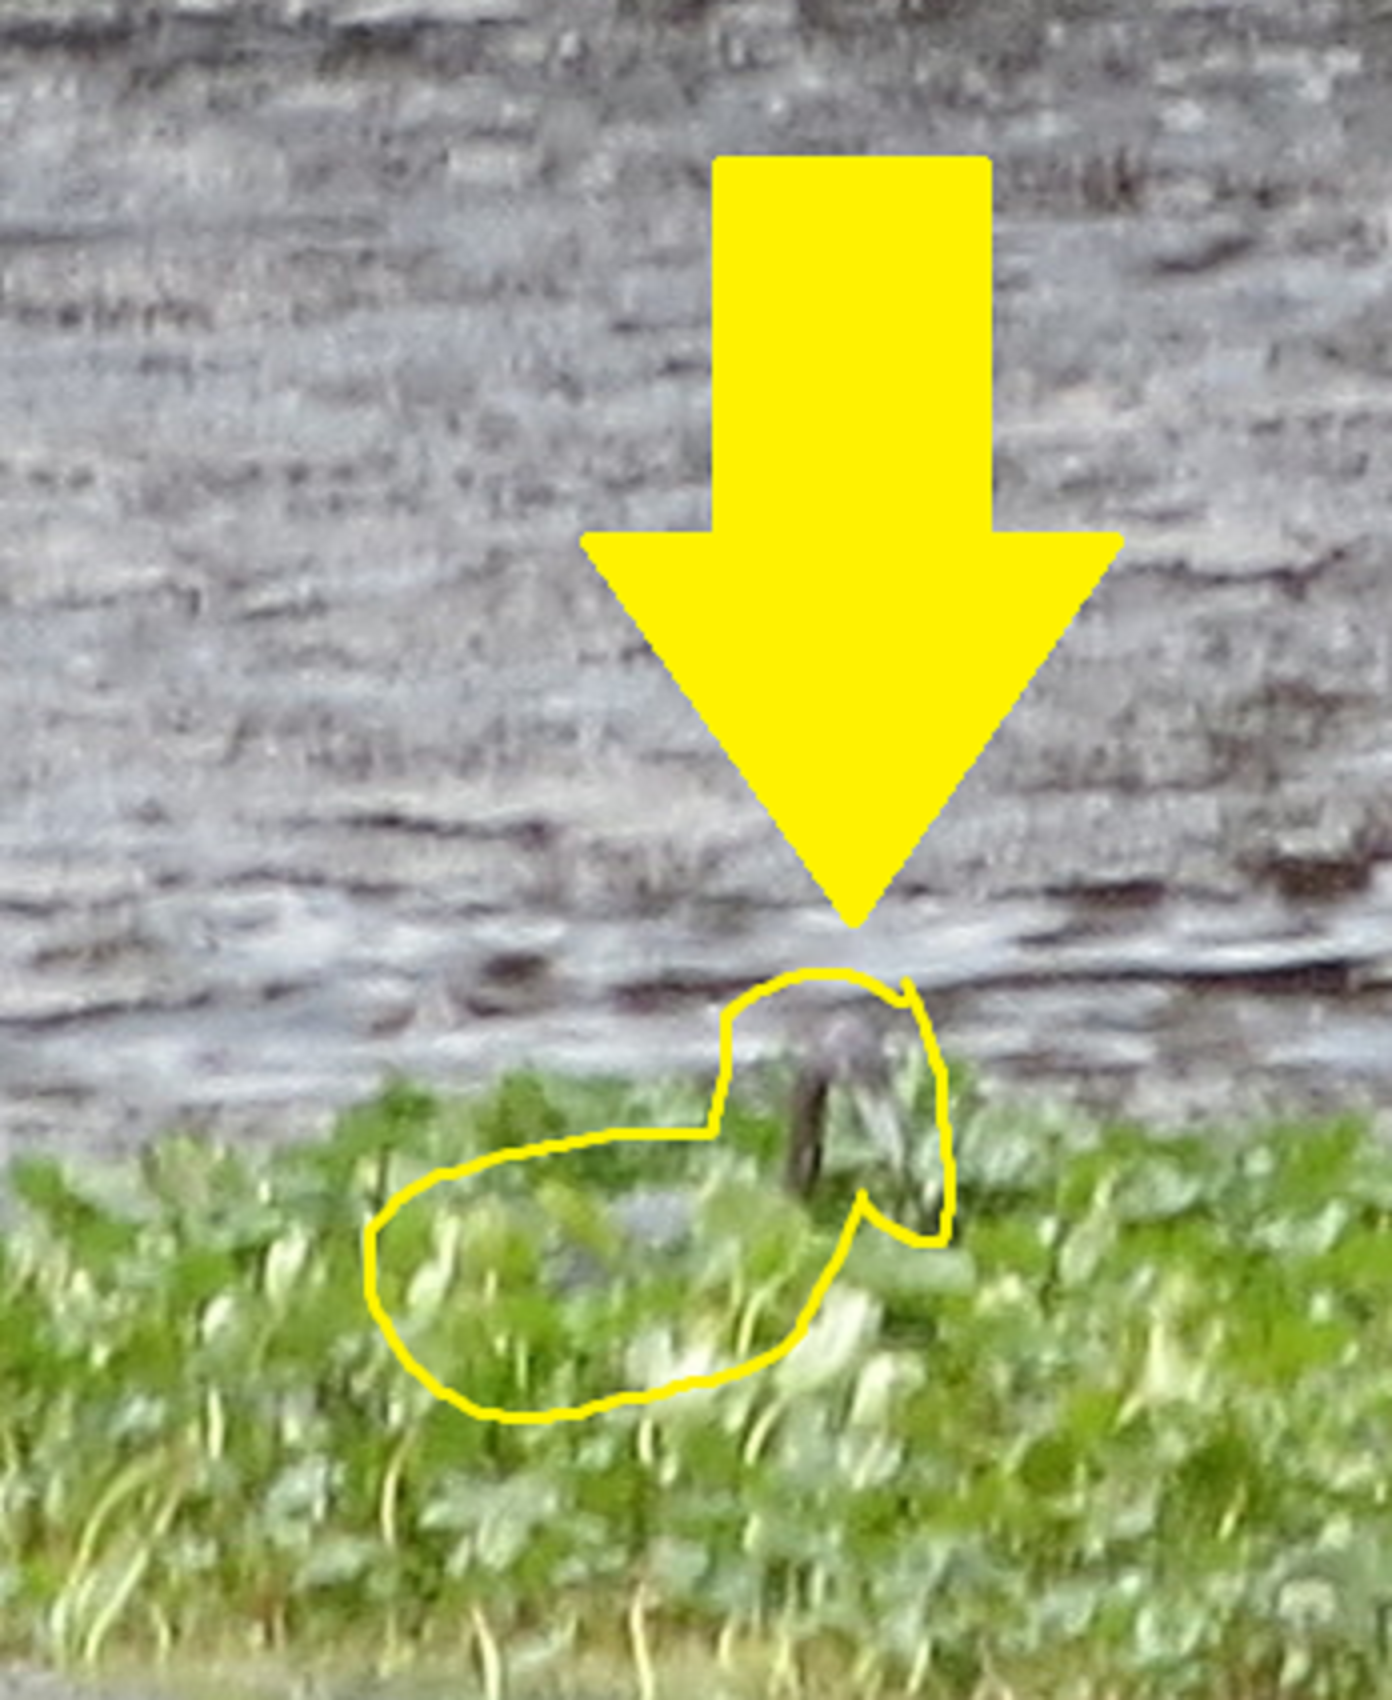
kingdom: Animalia
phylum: Chordata
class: Aves
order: Pelecaniformes
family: Ardeidae
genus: Egretta
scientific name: Egretta caerulea
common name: Little blue heron
